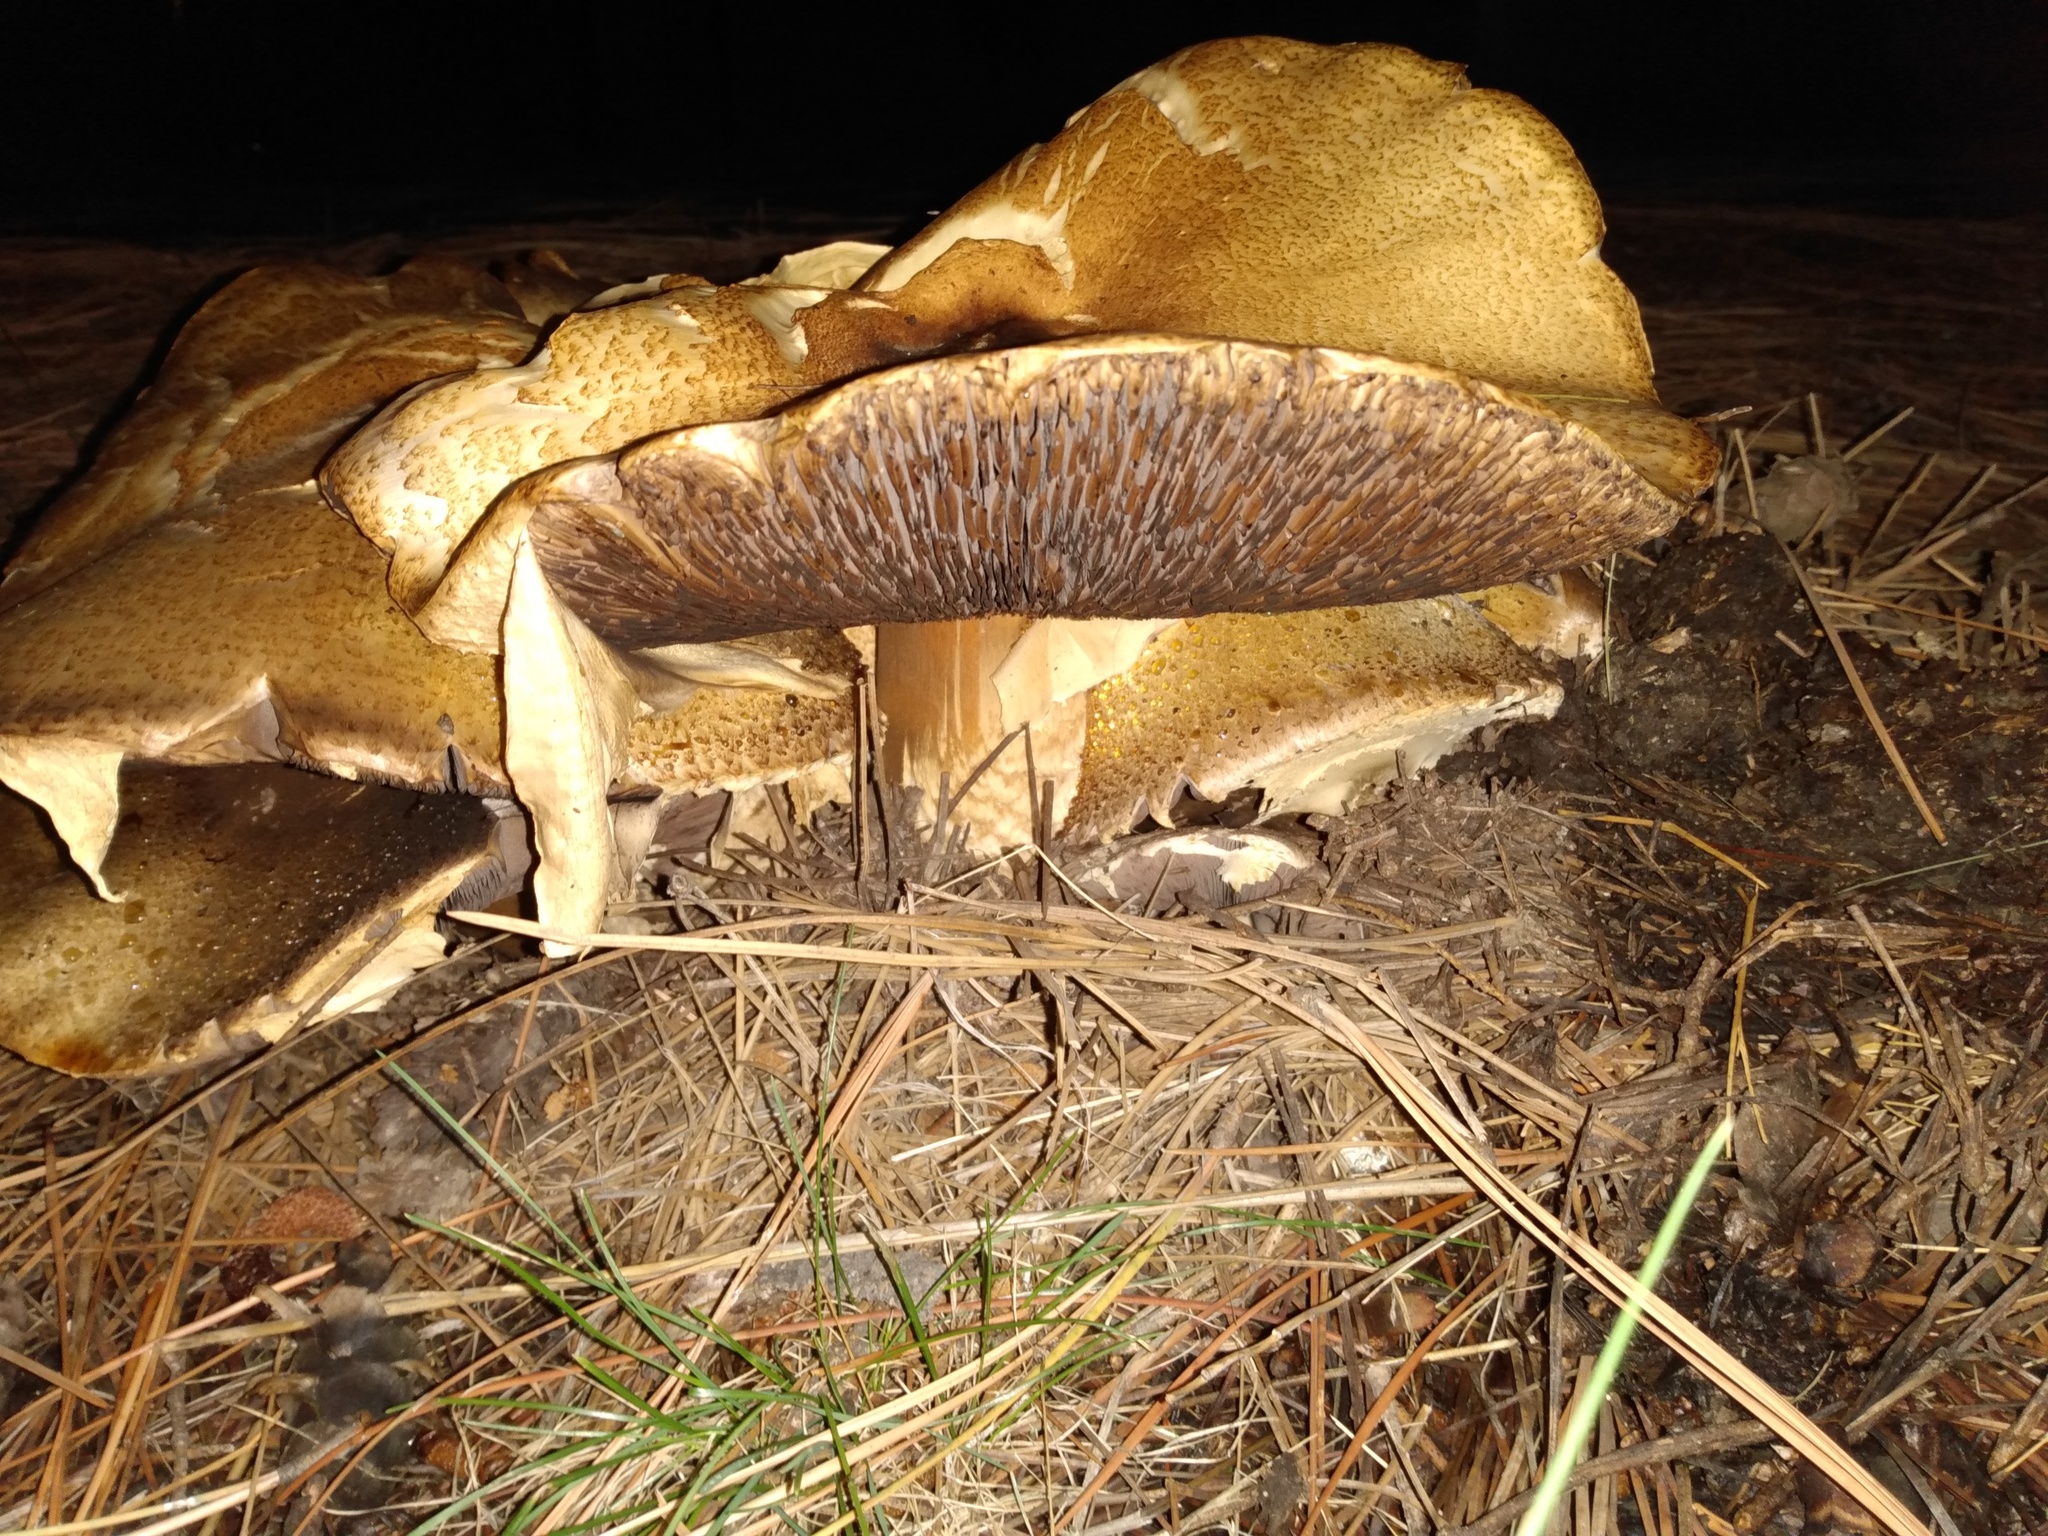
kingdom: Fungi
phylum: Basidiomycota
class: Agaricomycetes
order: Agaricales
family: Agaricaceae
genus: Agaricus
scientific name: Agaricus augustus
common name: Prince
